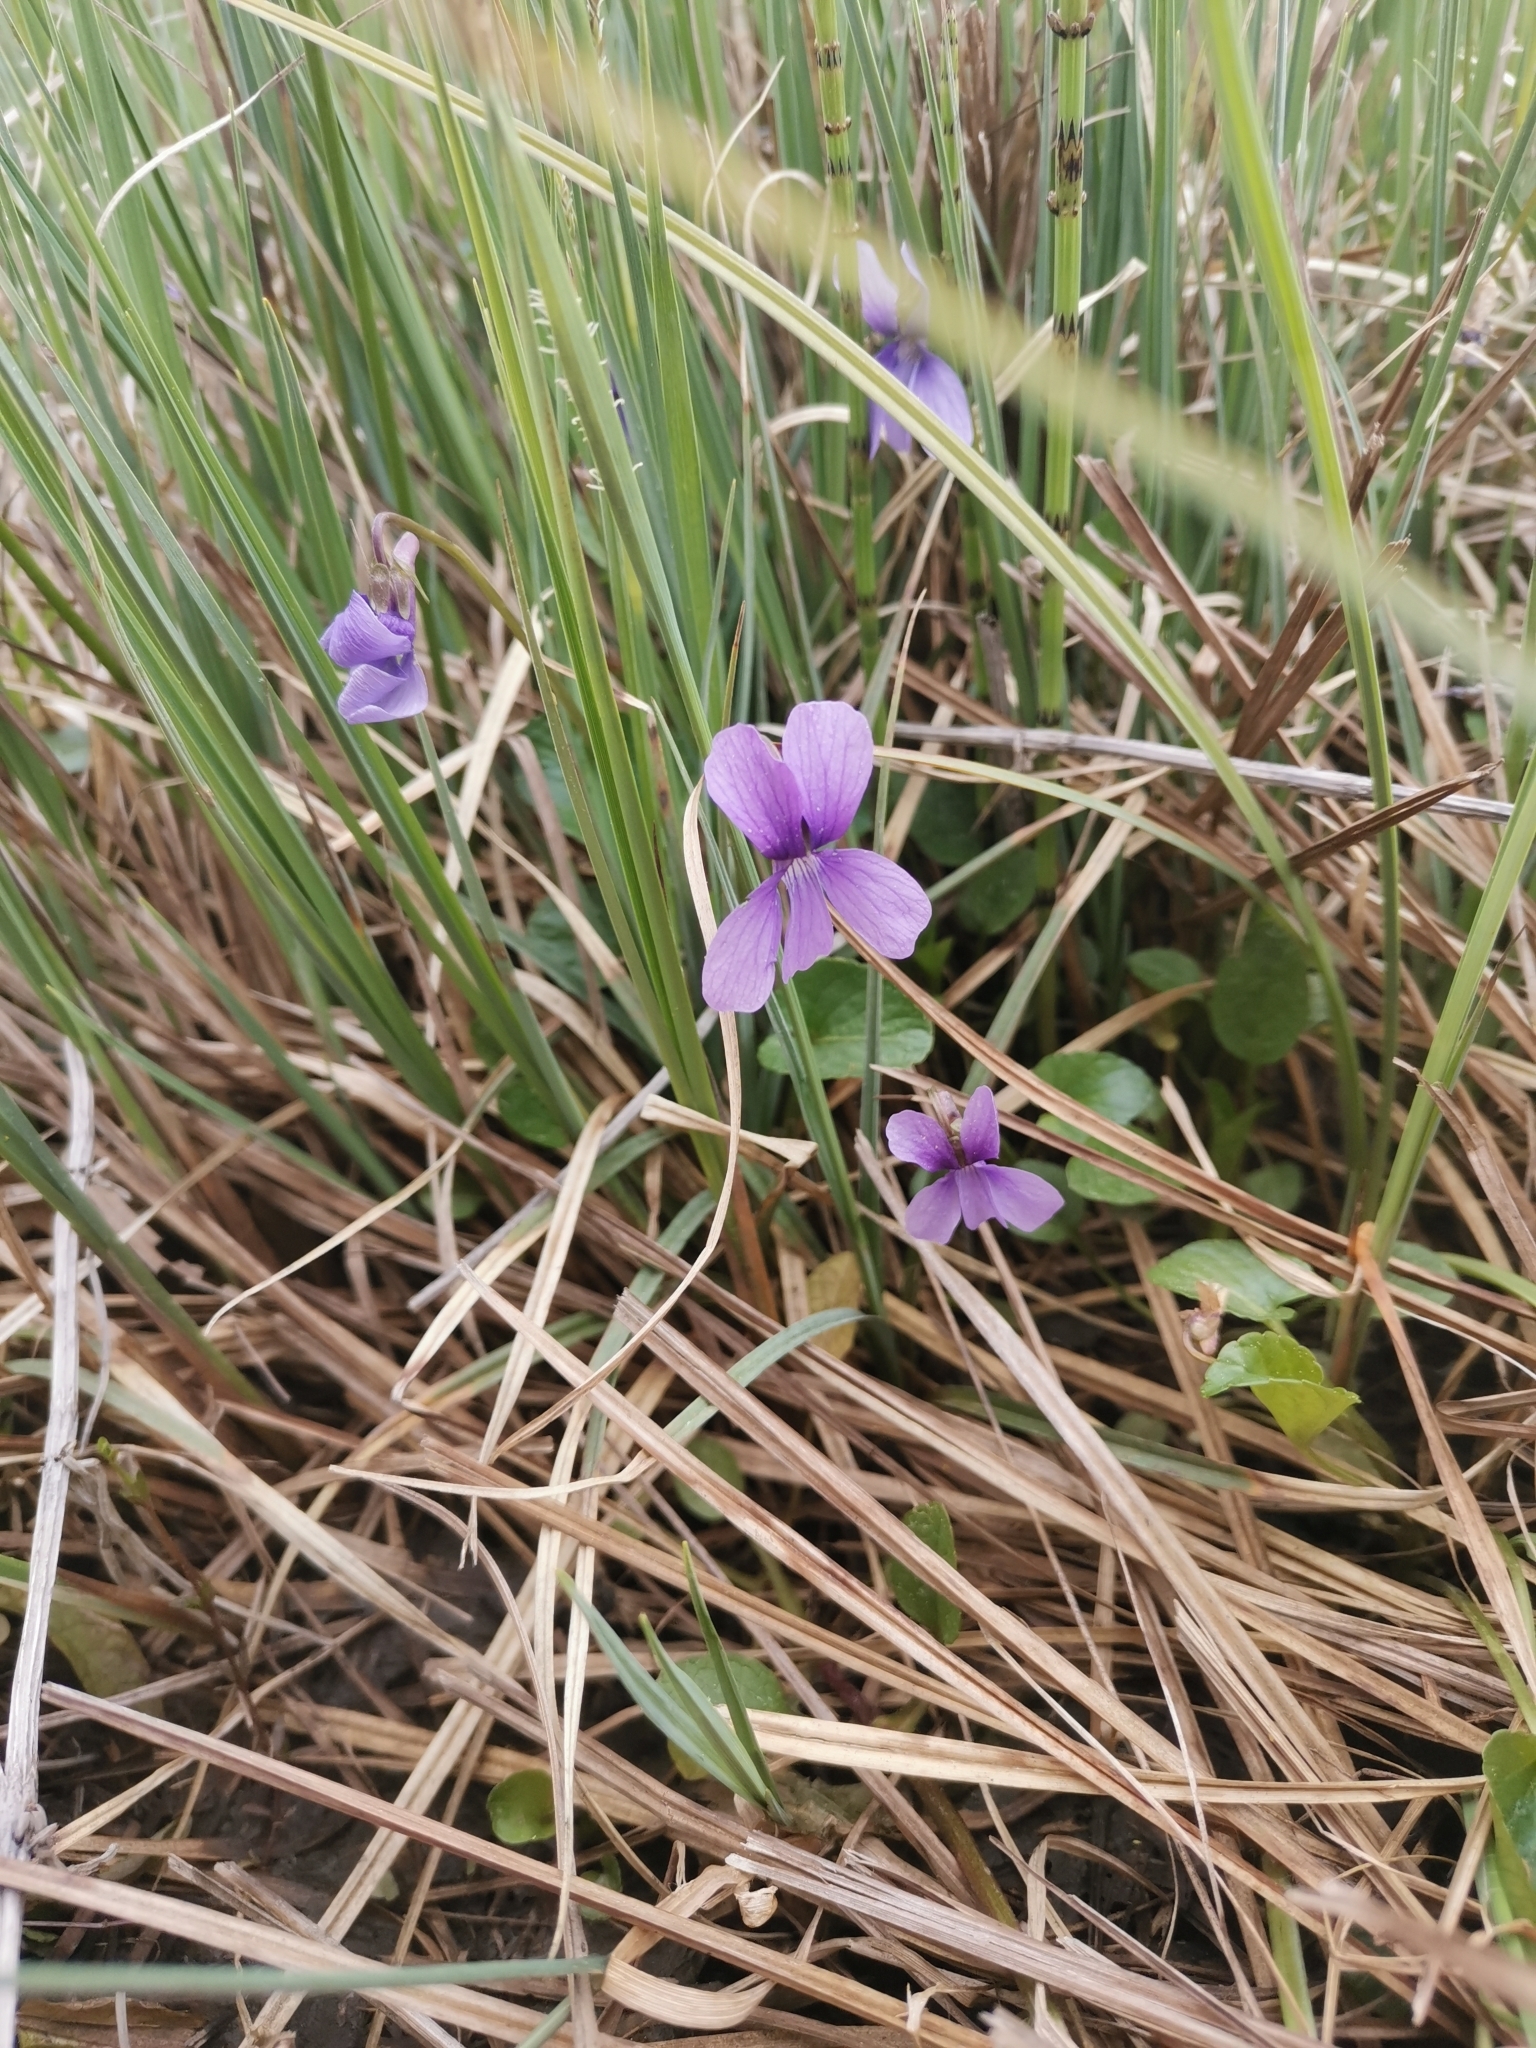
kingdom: Plantae
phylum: Tracheophyta
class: Magnoliopsida
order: Malpighiales
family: Violaceae
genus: Viola
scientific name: Viola uliginosa
